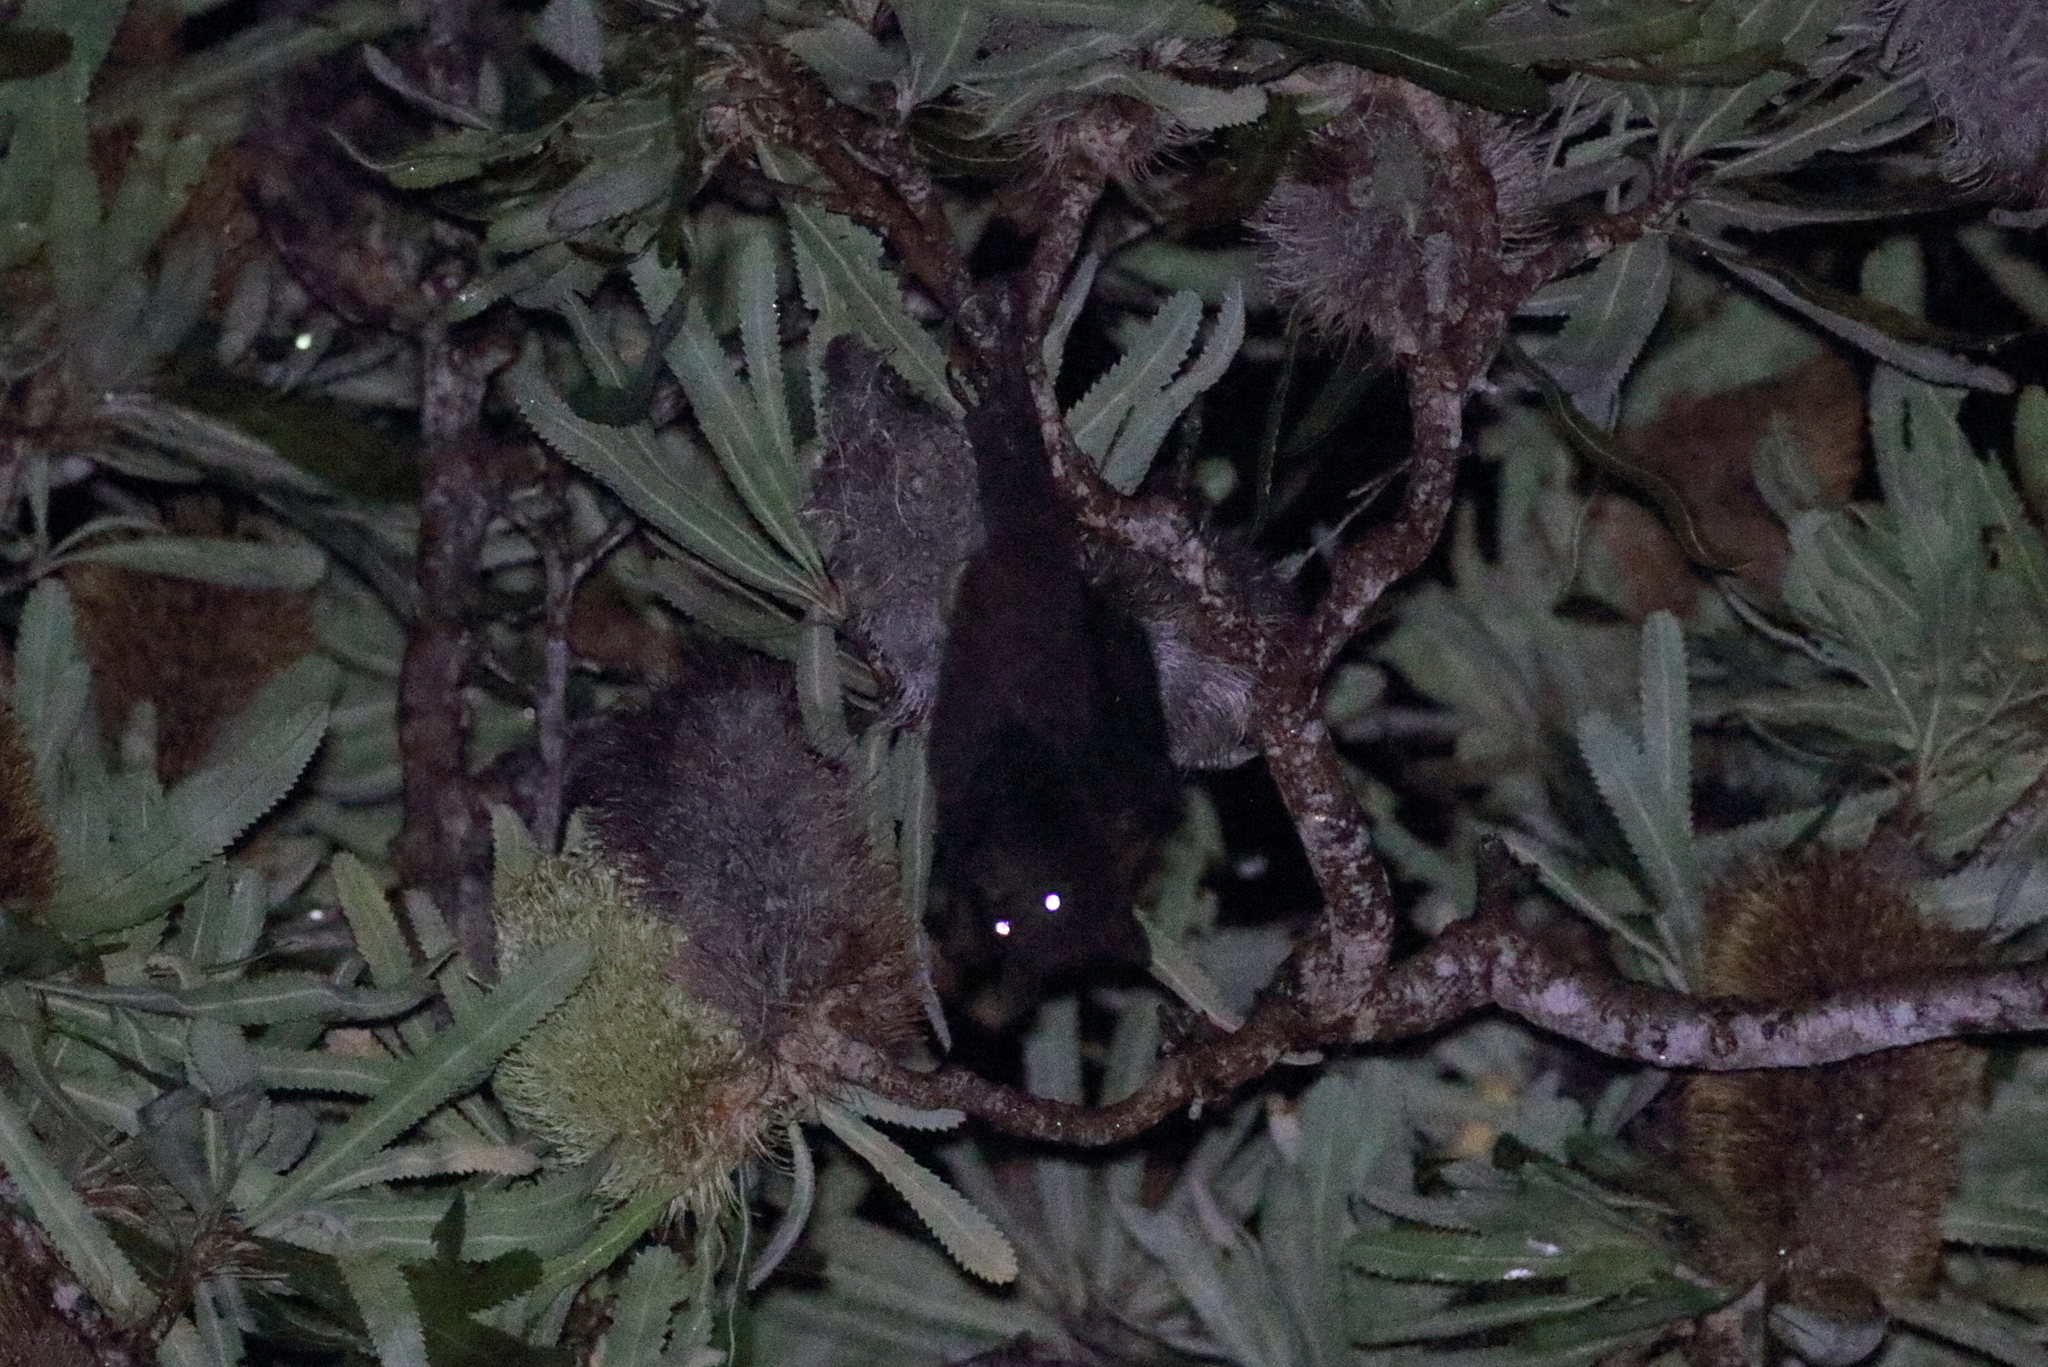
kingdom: Animalia
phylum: Chordata
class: Mammalia
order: Chiroptera
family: Pteropodidae
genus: Pteropus
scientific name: Pteropus alecto
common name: Black flying fox
